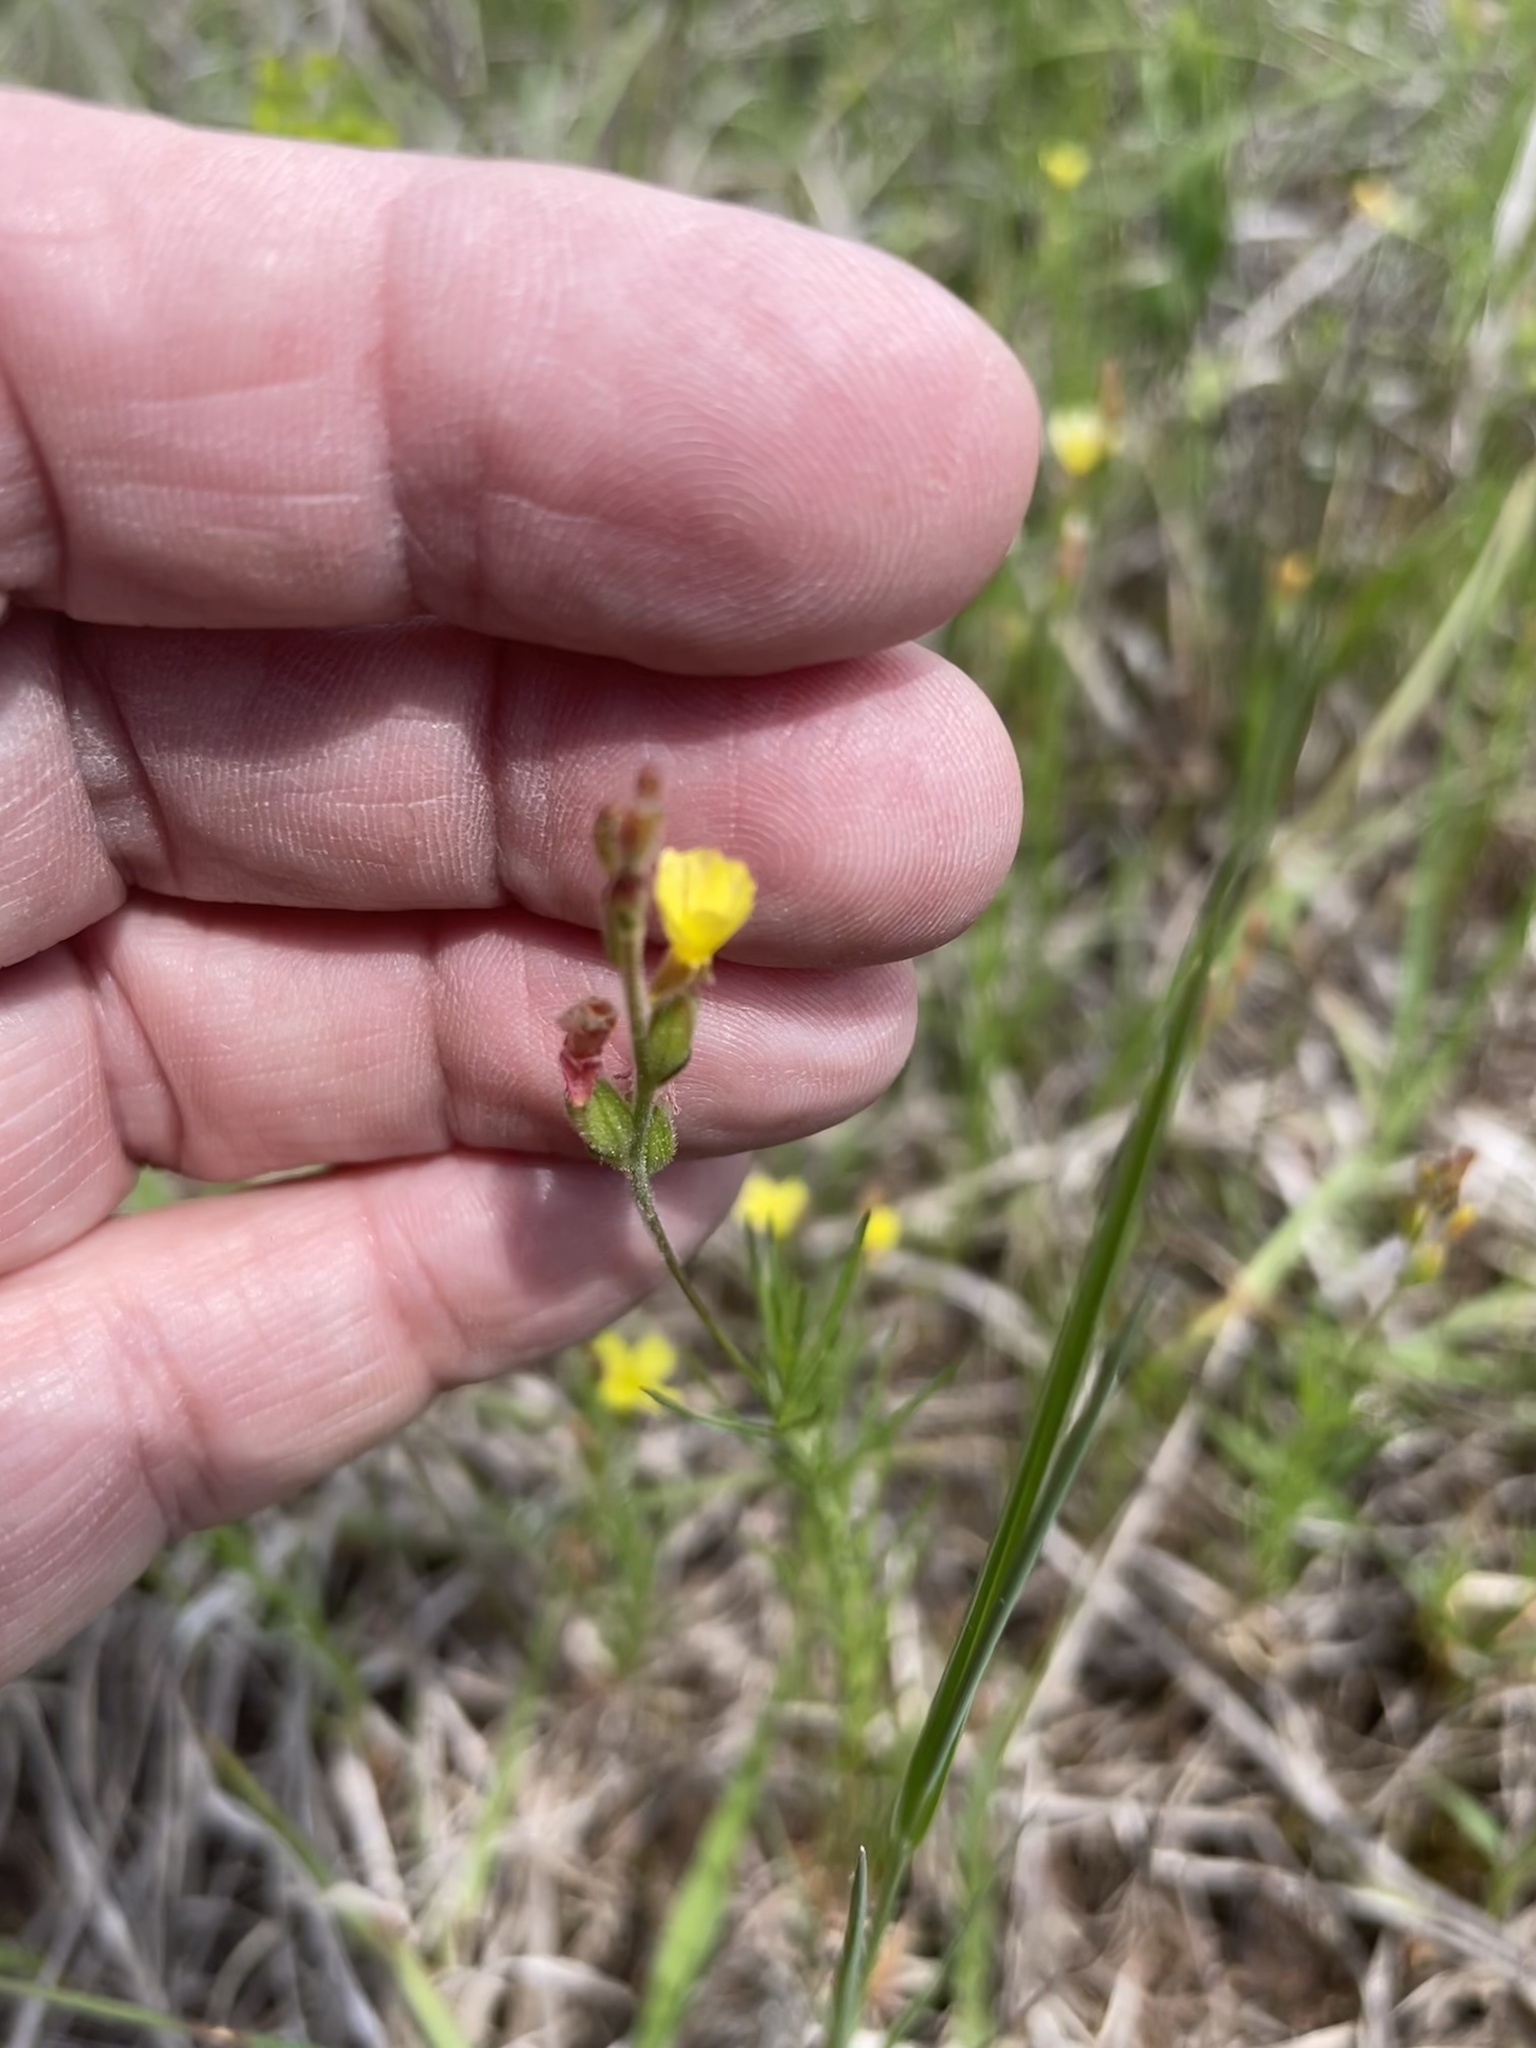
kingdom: Plantae
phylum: Tracheophyta
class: Magnoliopsida
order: Myrtales
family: Onagraceae
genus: Oenothera
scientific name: Oenothera linifolia
